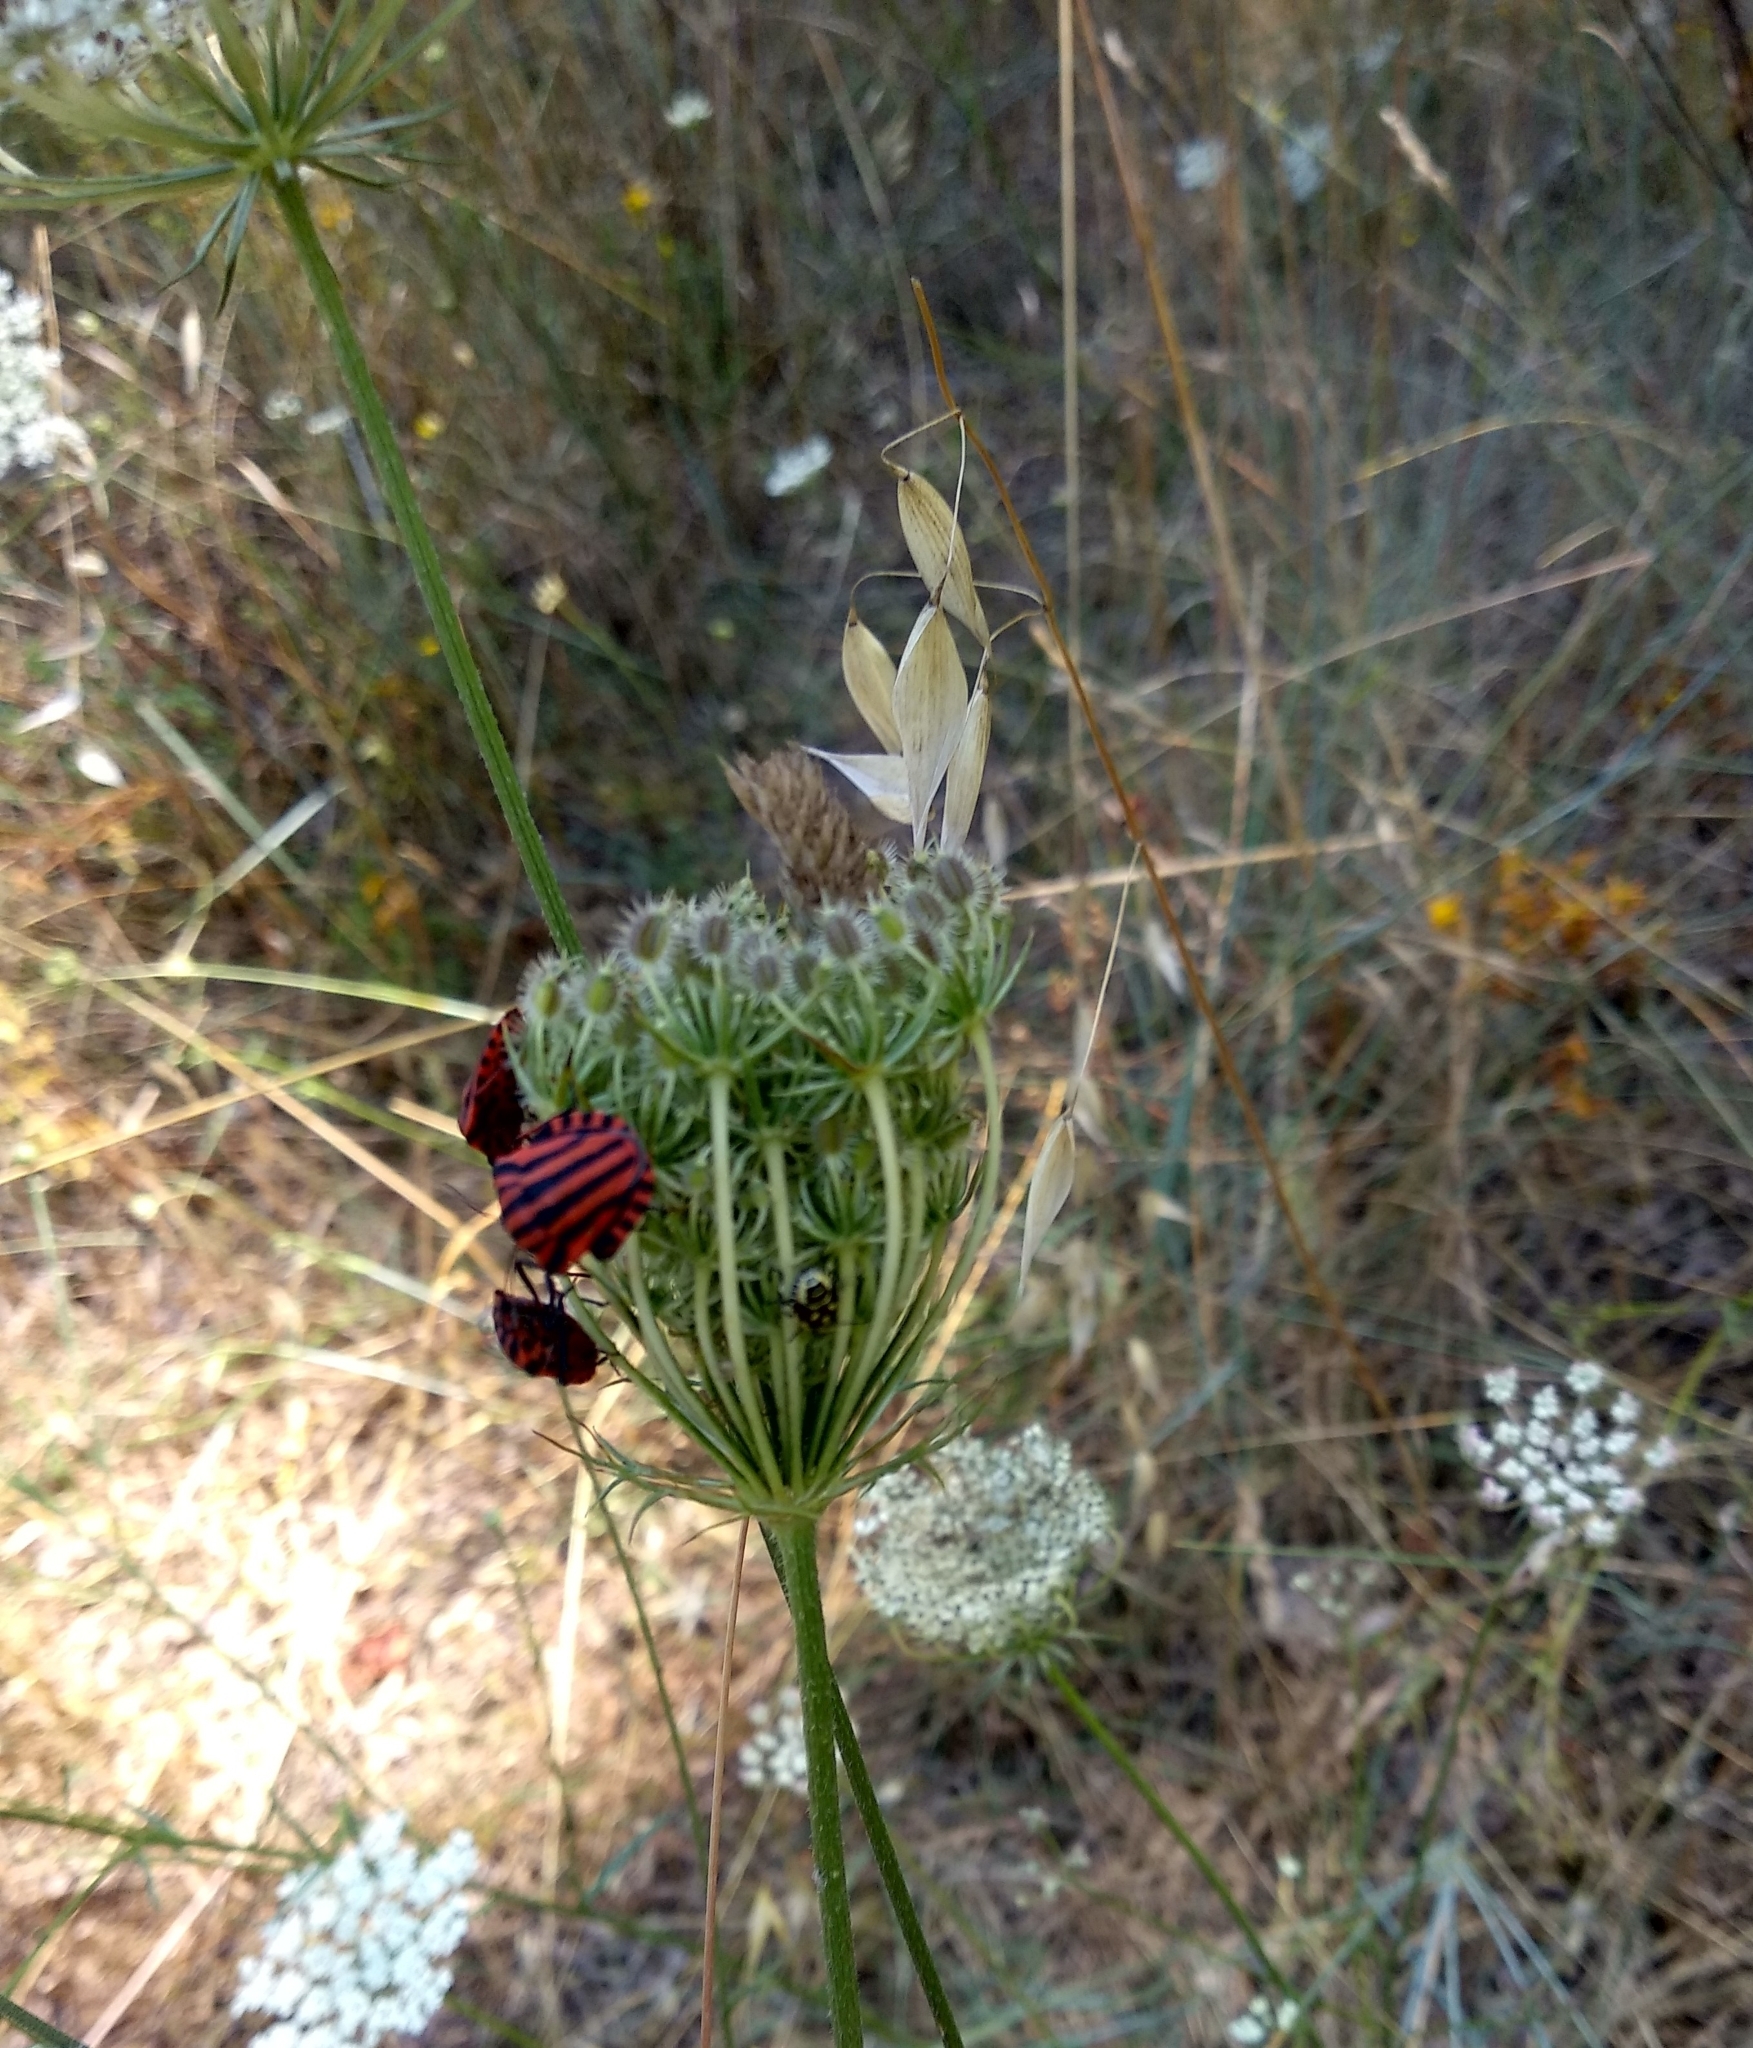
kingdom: Animalia
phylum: Arthropoda
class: Insecta
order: Hemiptera
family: Pentatomidae
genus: Graphosoma
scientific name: Graphosoma italicum
